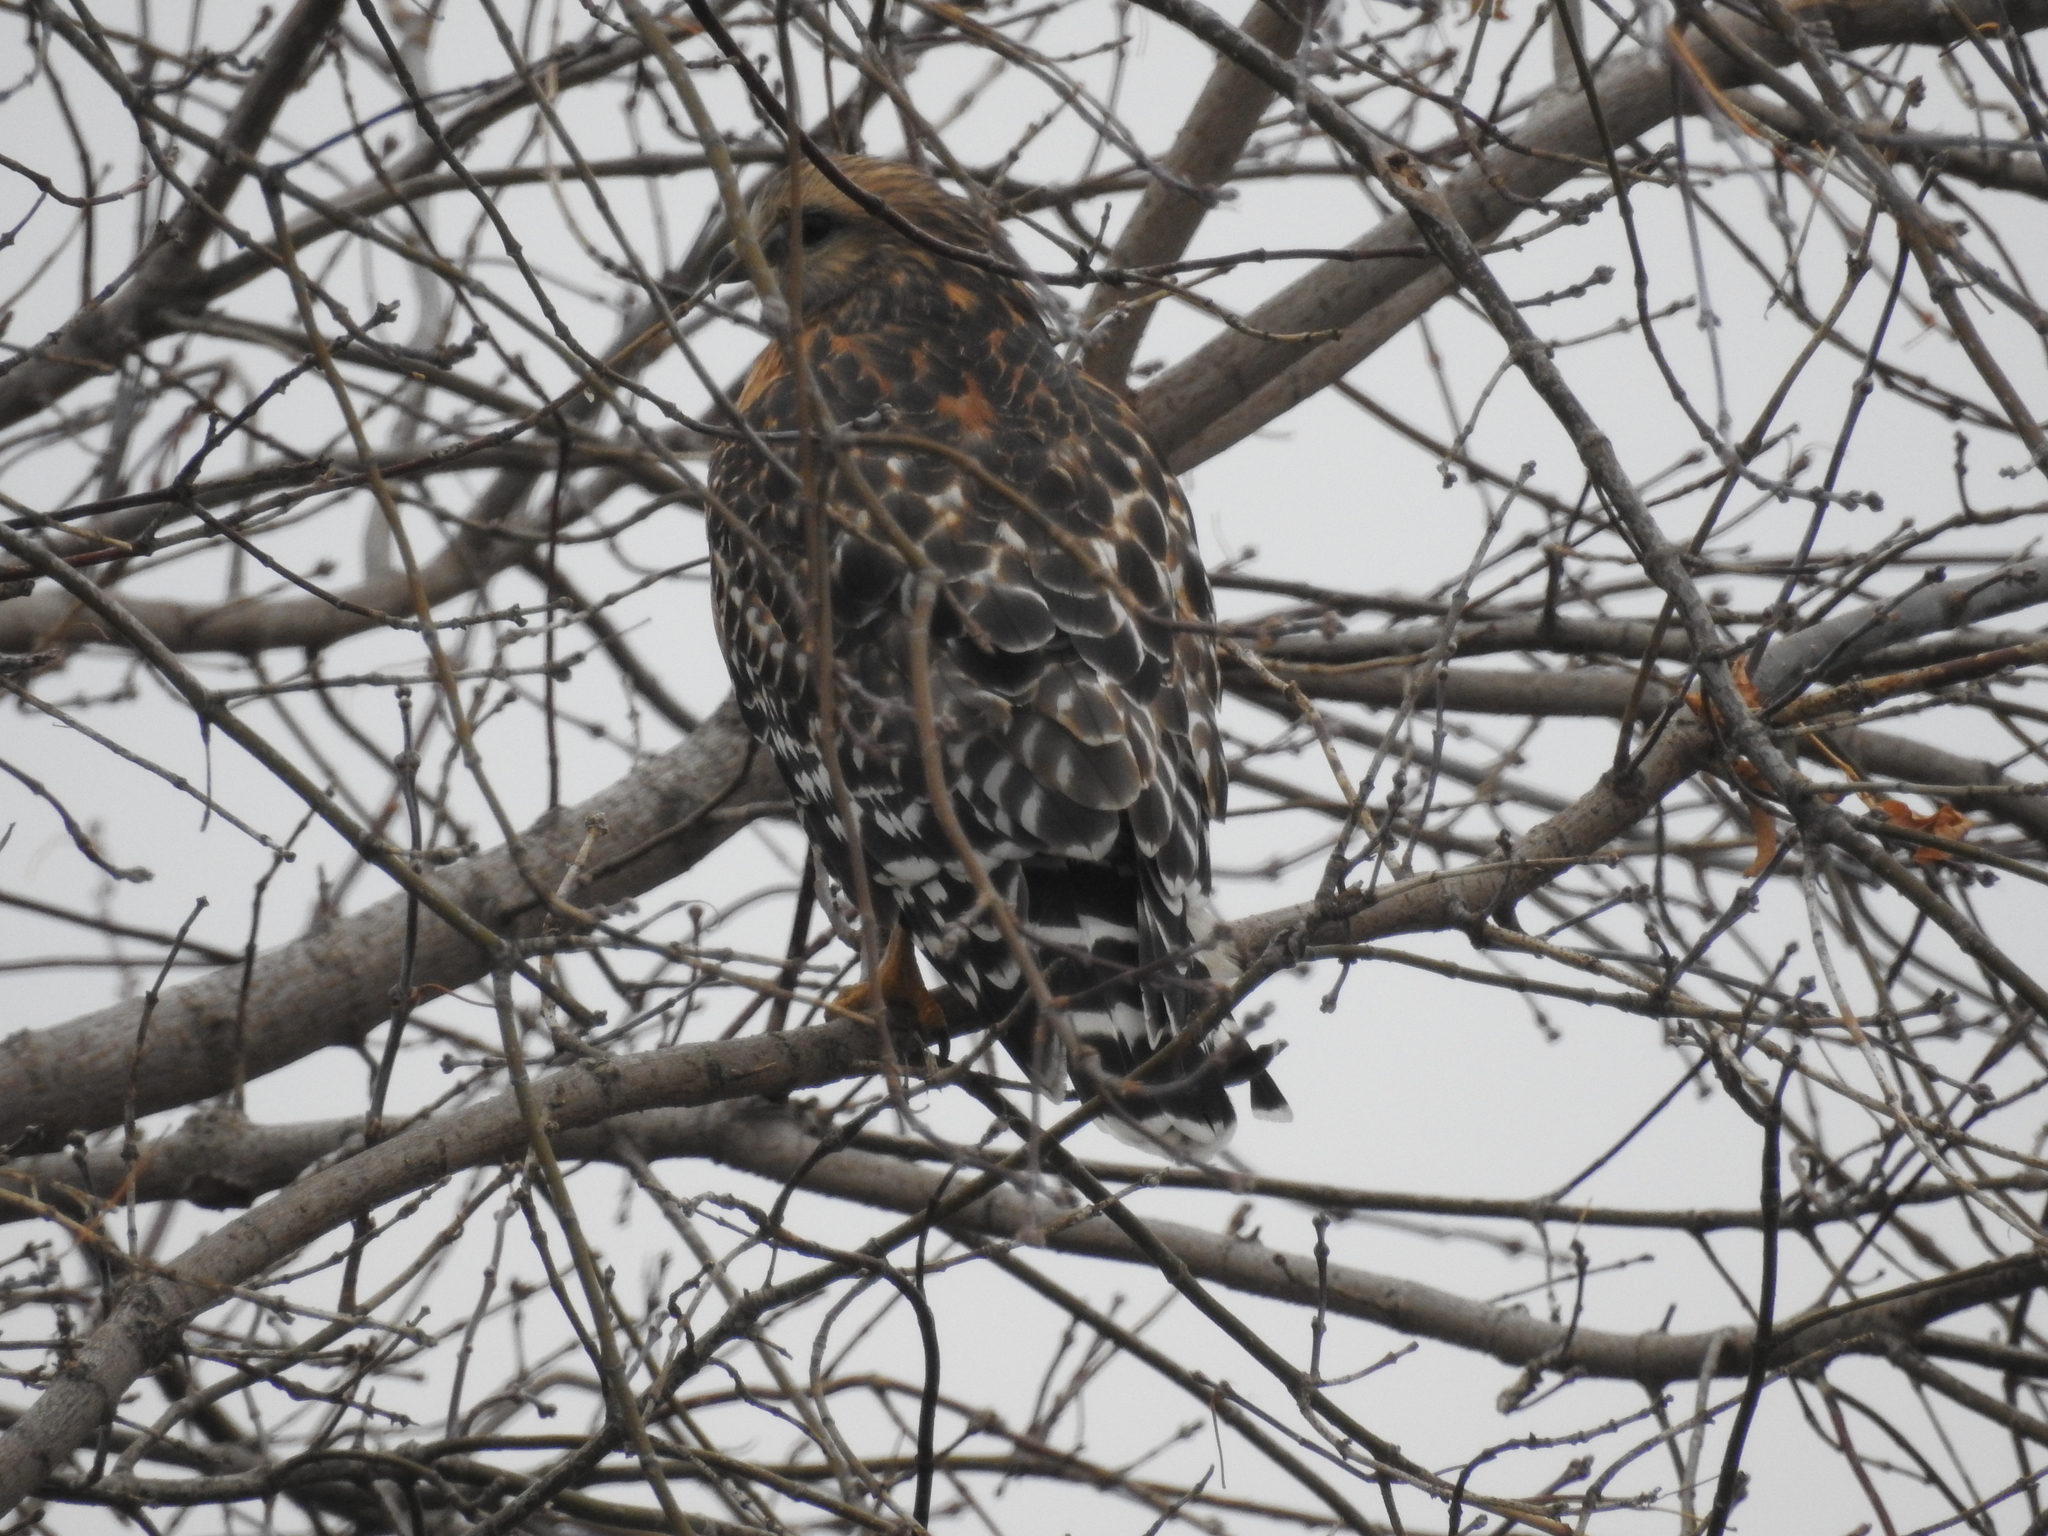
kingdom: Animalia
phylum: Chordata
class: Aves
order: Accipitriformes
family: Accipitridae
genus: Buteo
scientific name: Buteo lineatus
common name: Red-shouldered hawk
